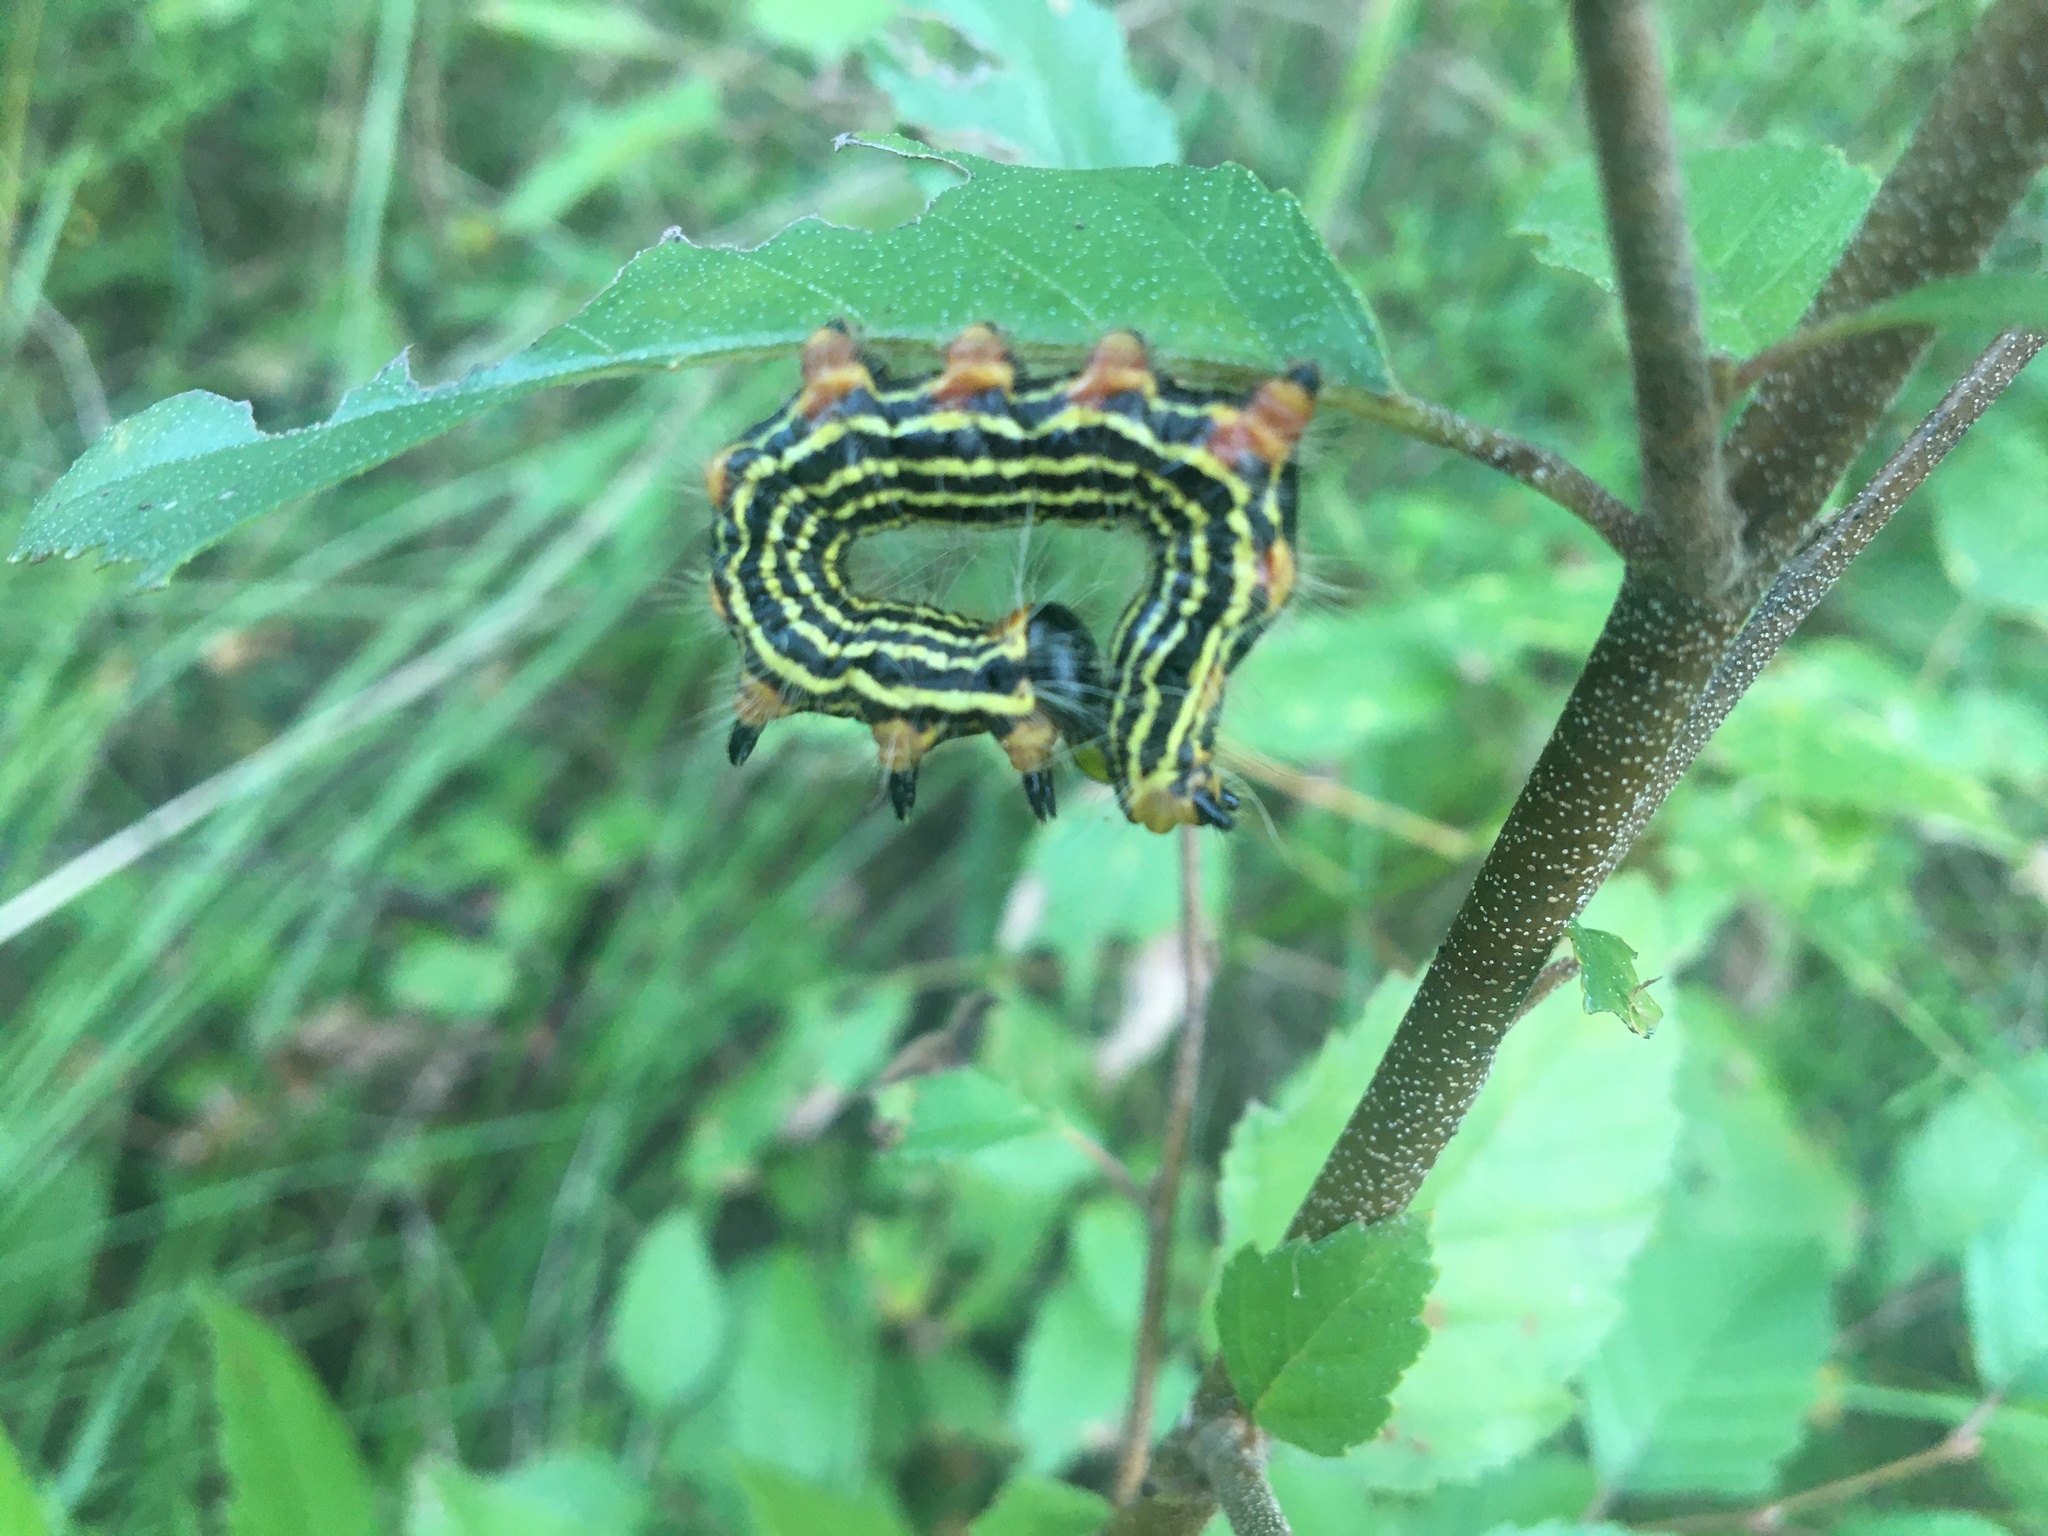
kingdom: Animalia
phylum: Arthropoda
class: Insecta
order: Lepidoptera
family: Notodontidae
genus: Datana
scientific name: Datana ministra
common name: Yellow-necked caterpillar moth
